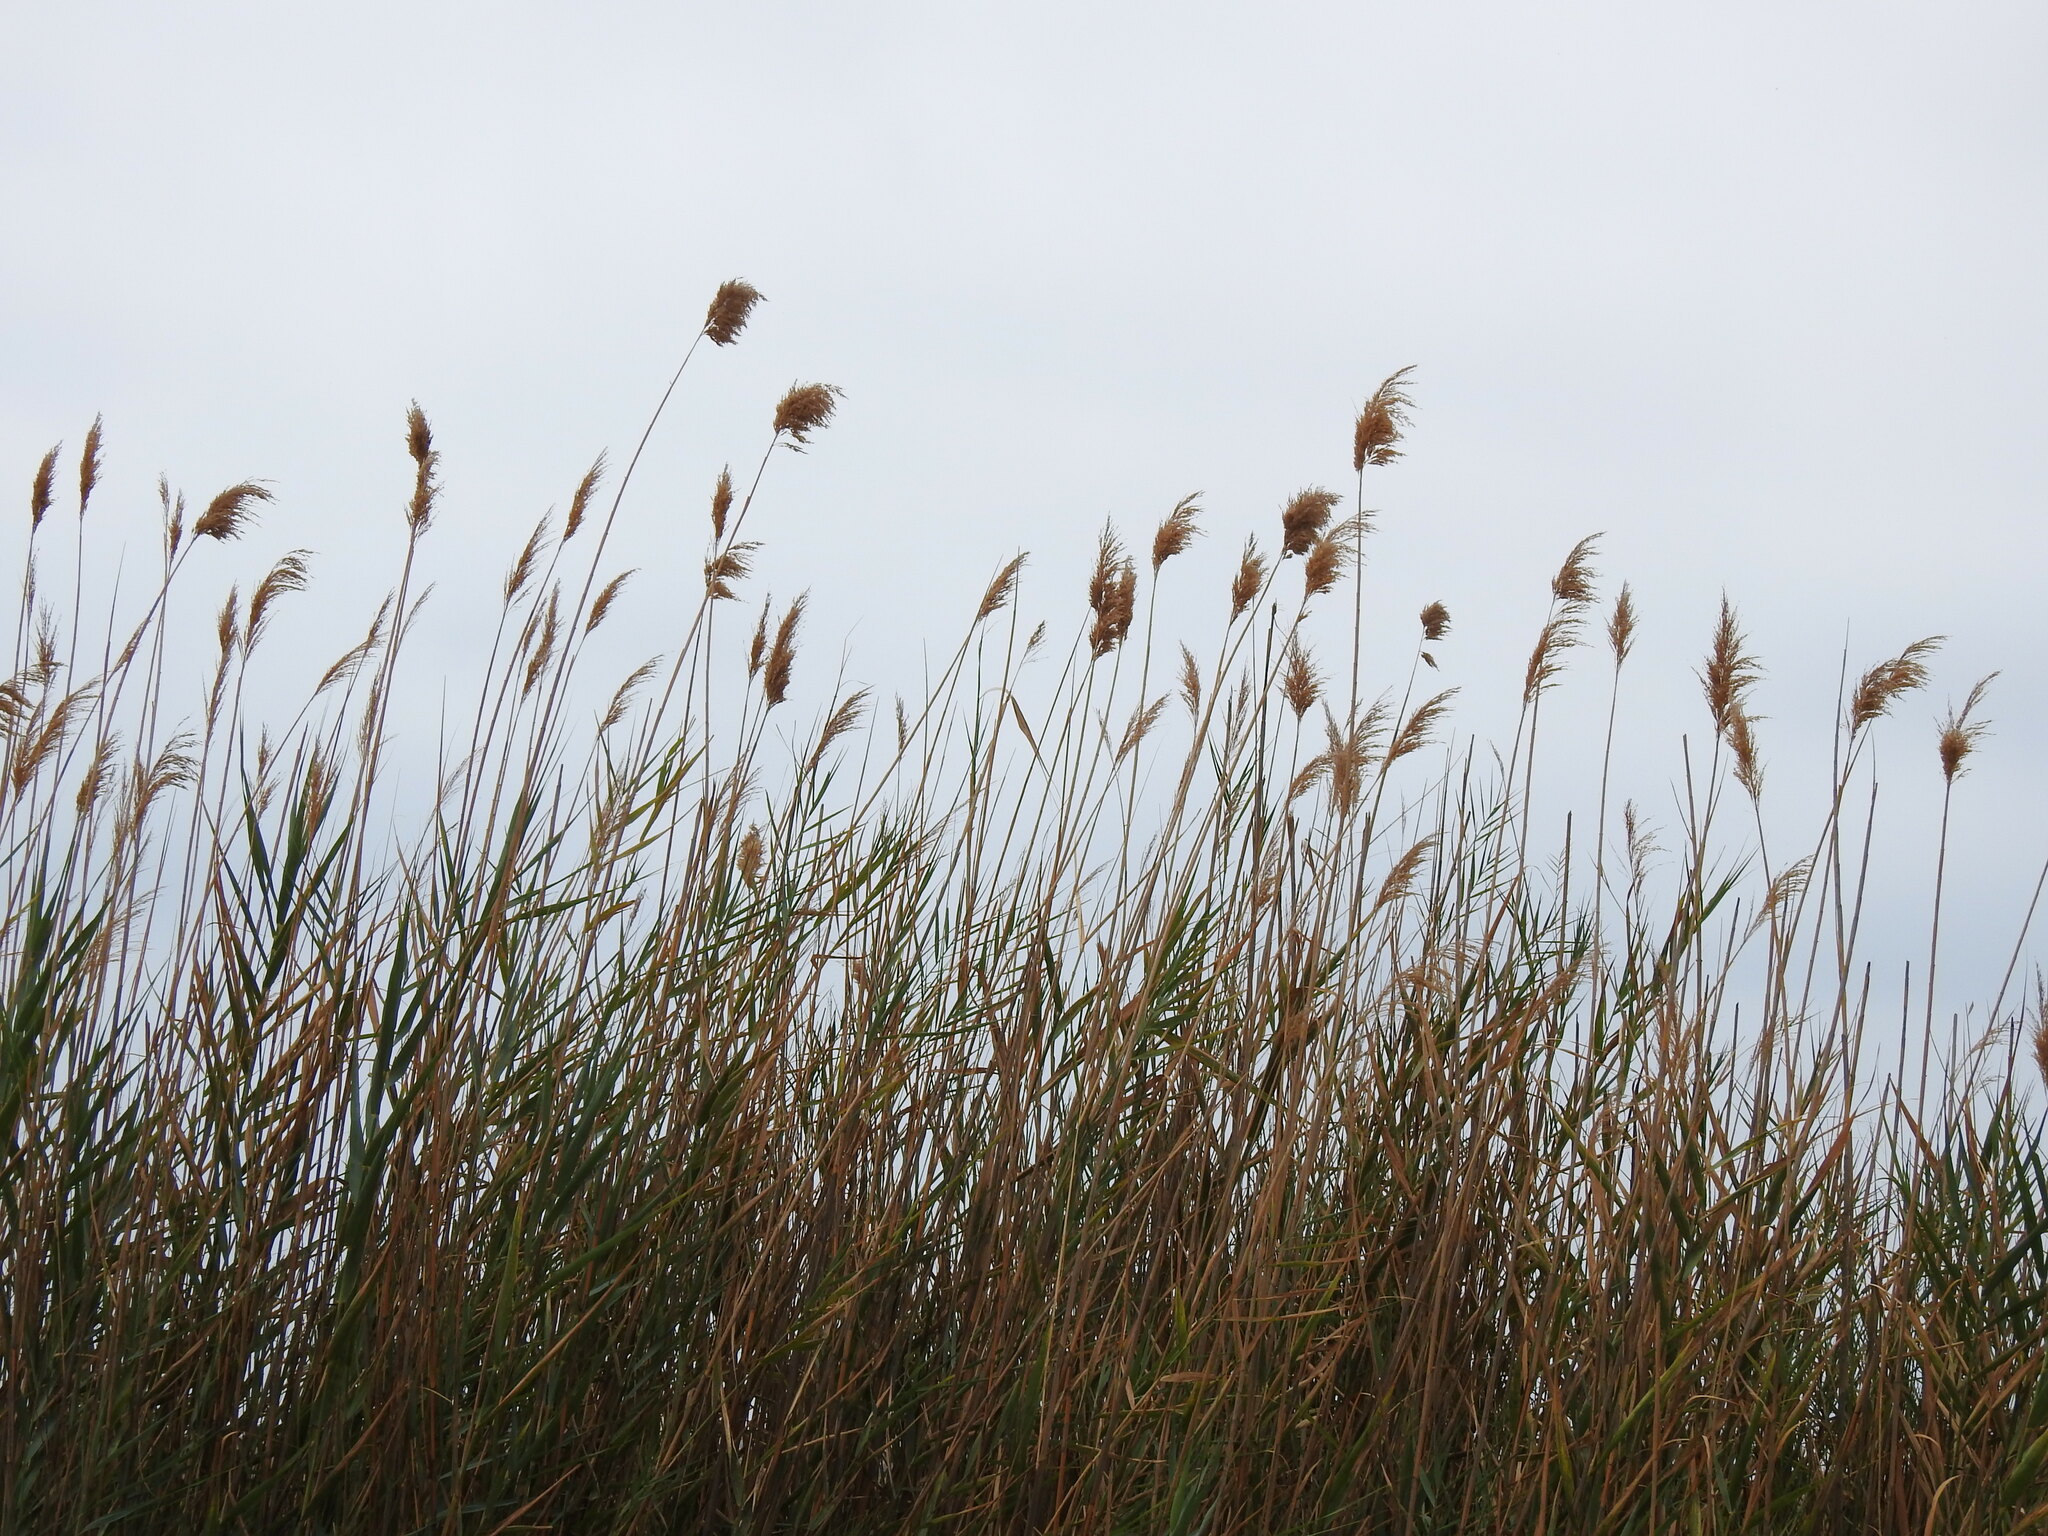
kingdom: Plantae
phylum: Tracheophyta
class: Liliopsida
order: Poales
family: Poaceae
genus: Phragmites
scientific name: Phragmites australis
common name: Common reed
